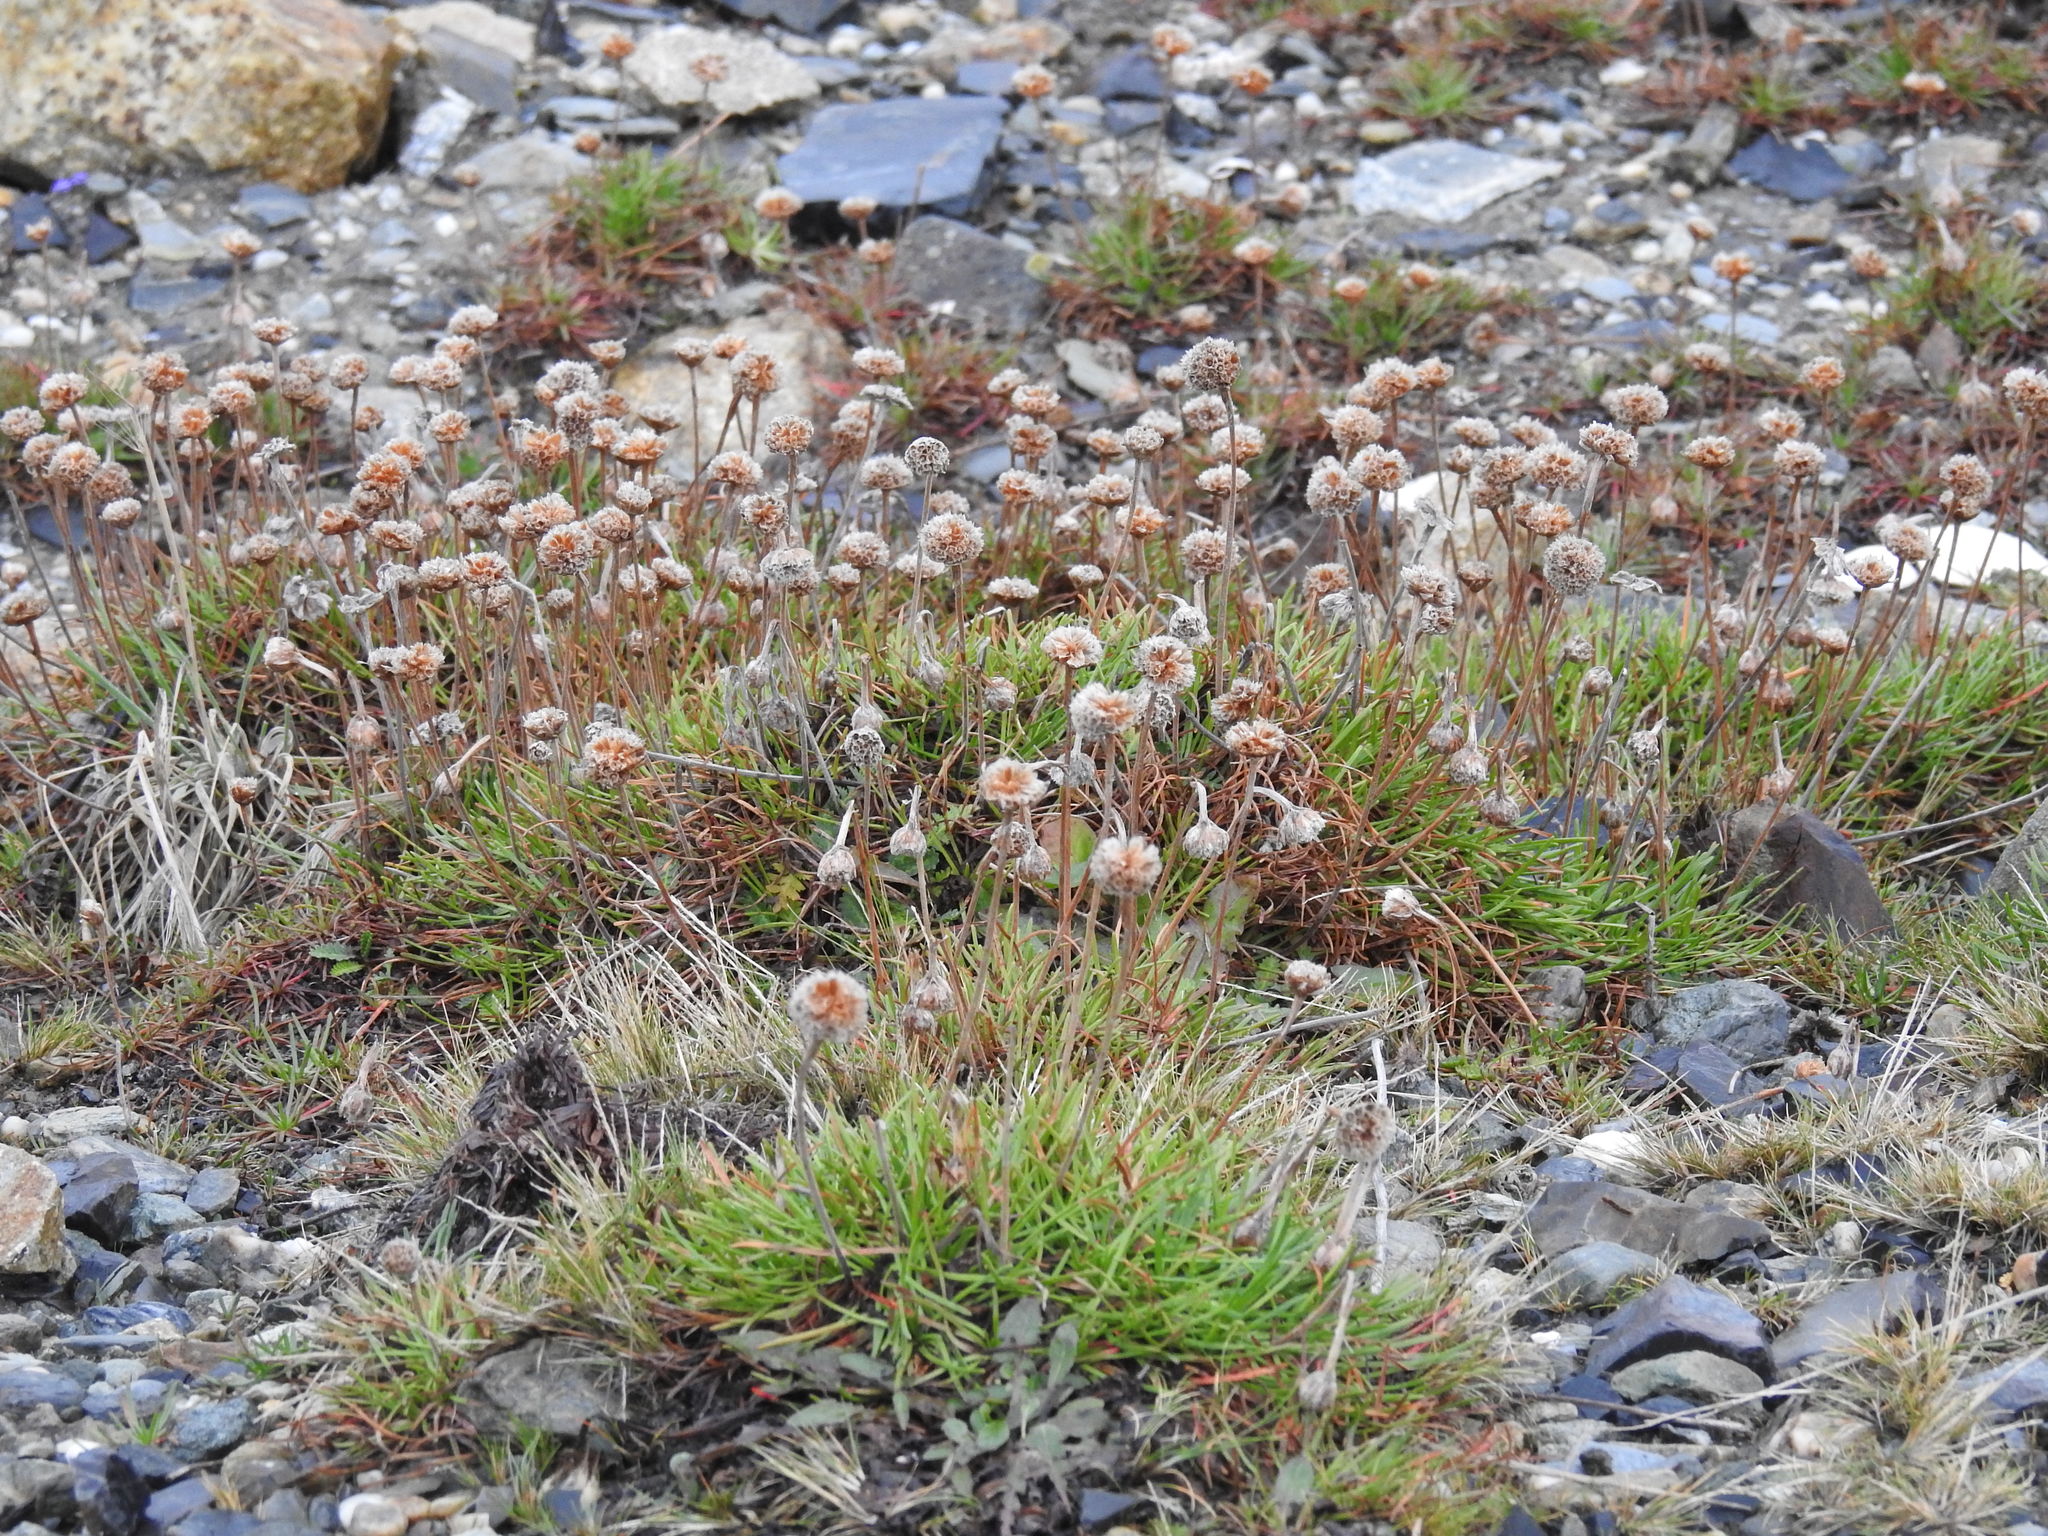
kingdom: Plantae
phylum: Tracheophyta
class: Magnoliopsida
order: Caryophyllales
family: Plumbaginaceae
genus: Armeria
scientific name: Armeria curvifolia
